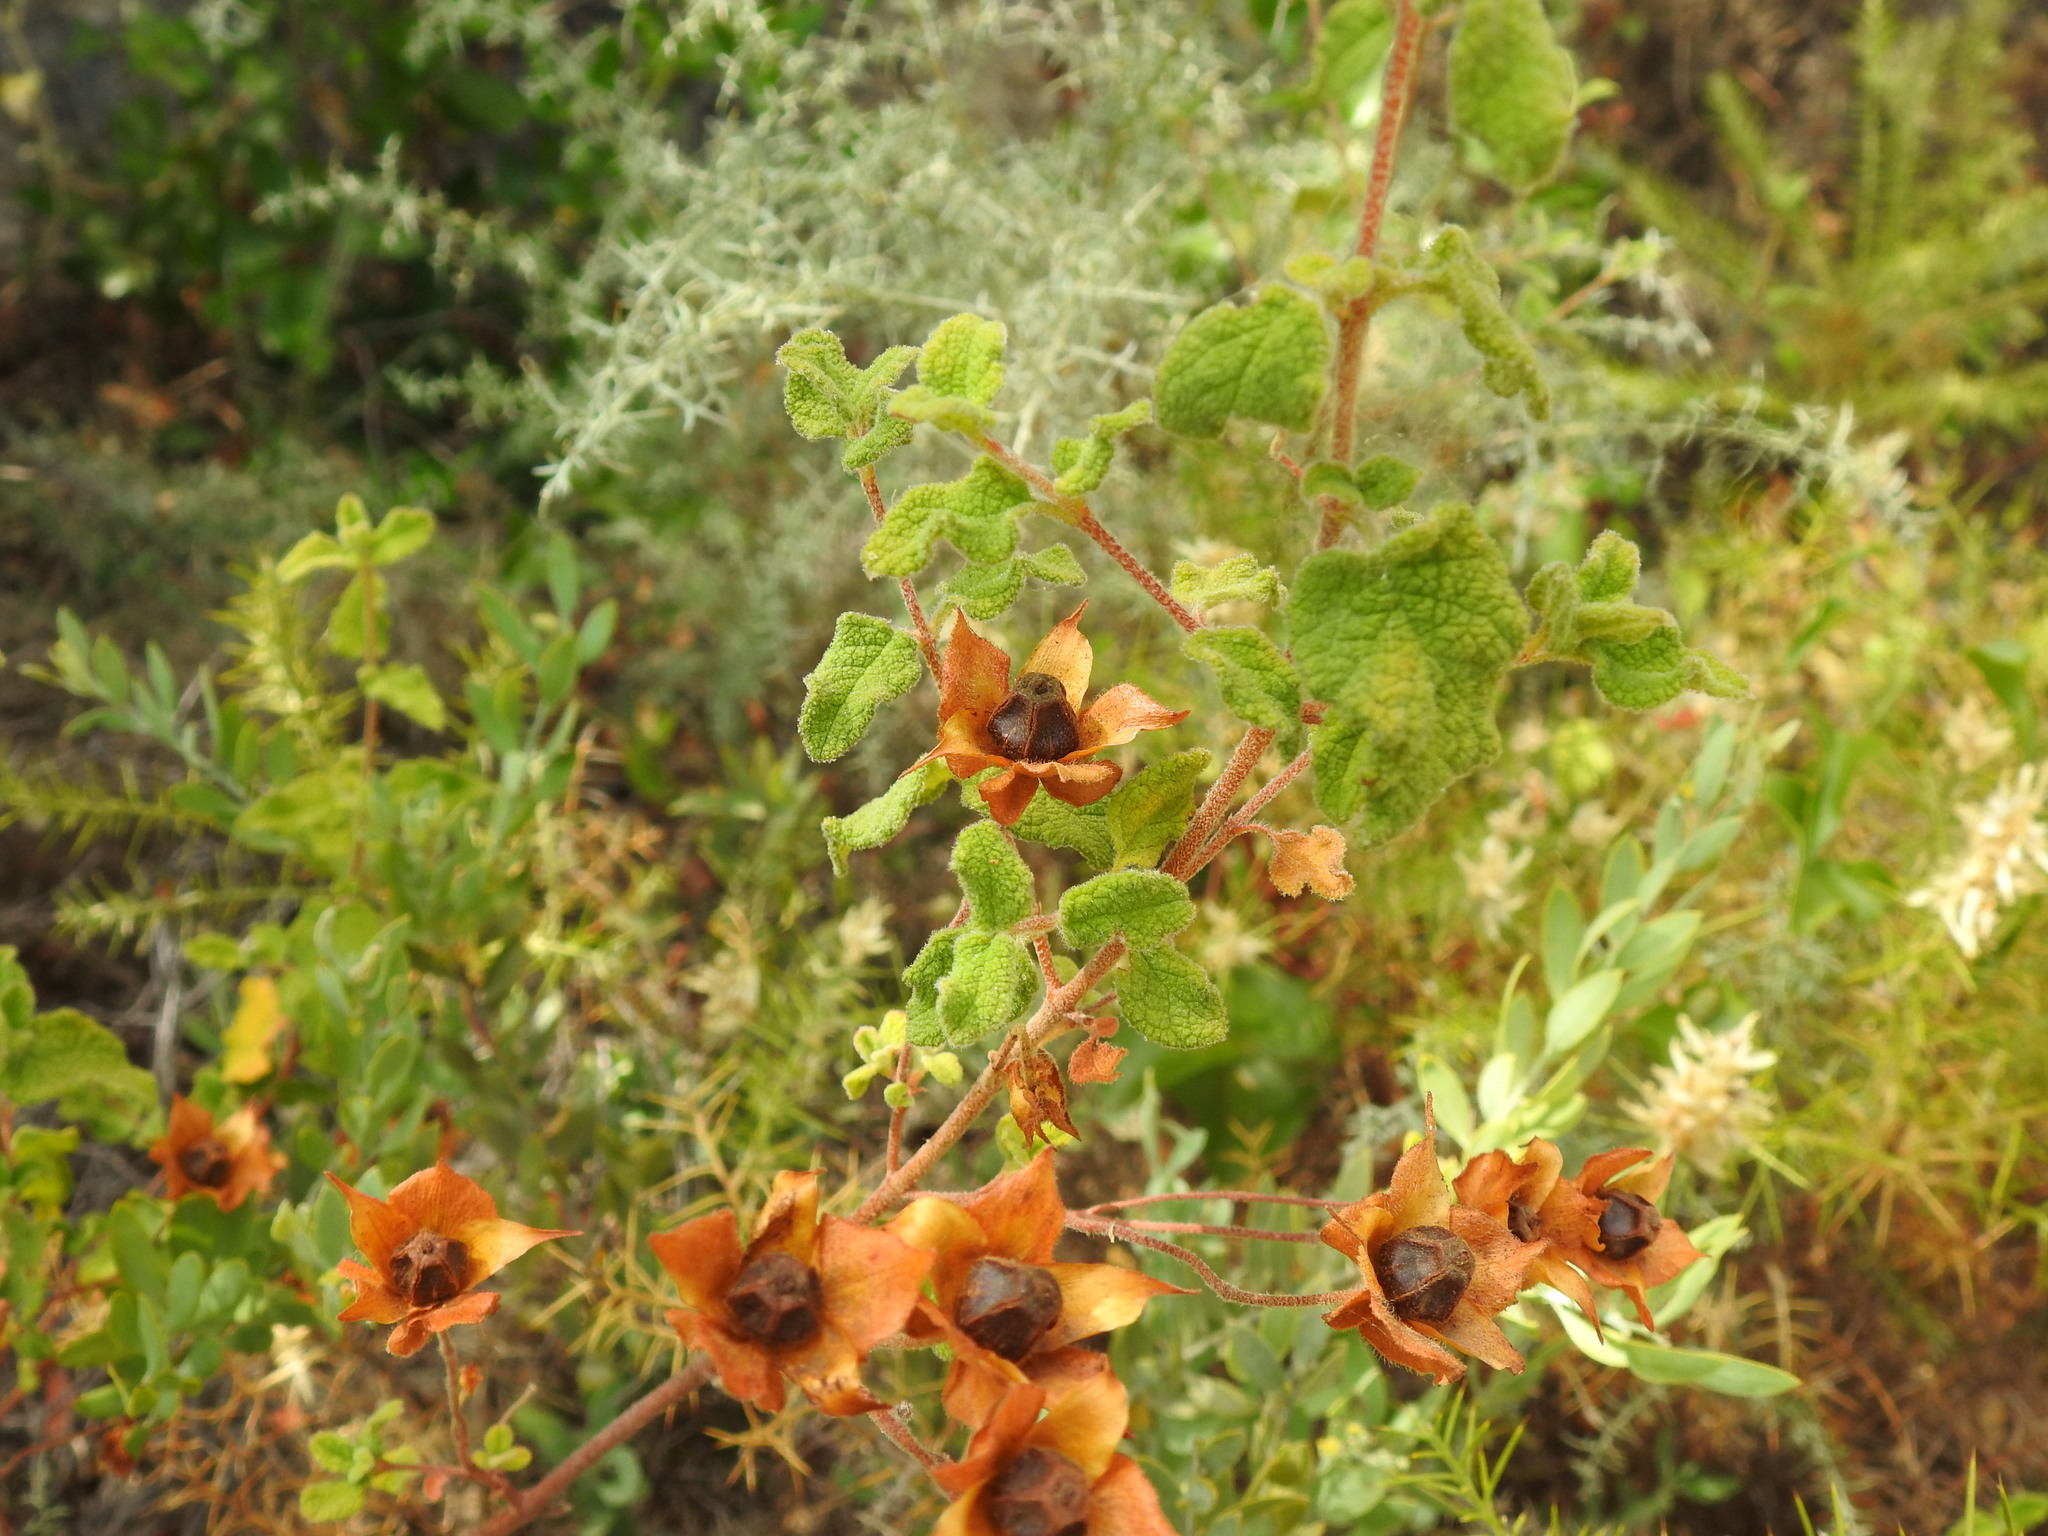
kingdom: Plantae
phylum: Tracheophyta
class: Magnoliopsida
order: Malvales
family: Cistaceae
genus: Cistus
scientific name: Cistus salviifolius
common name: Salvia cistus
